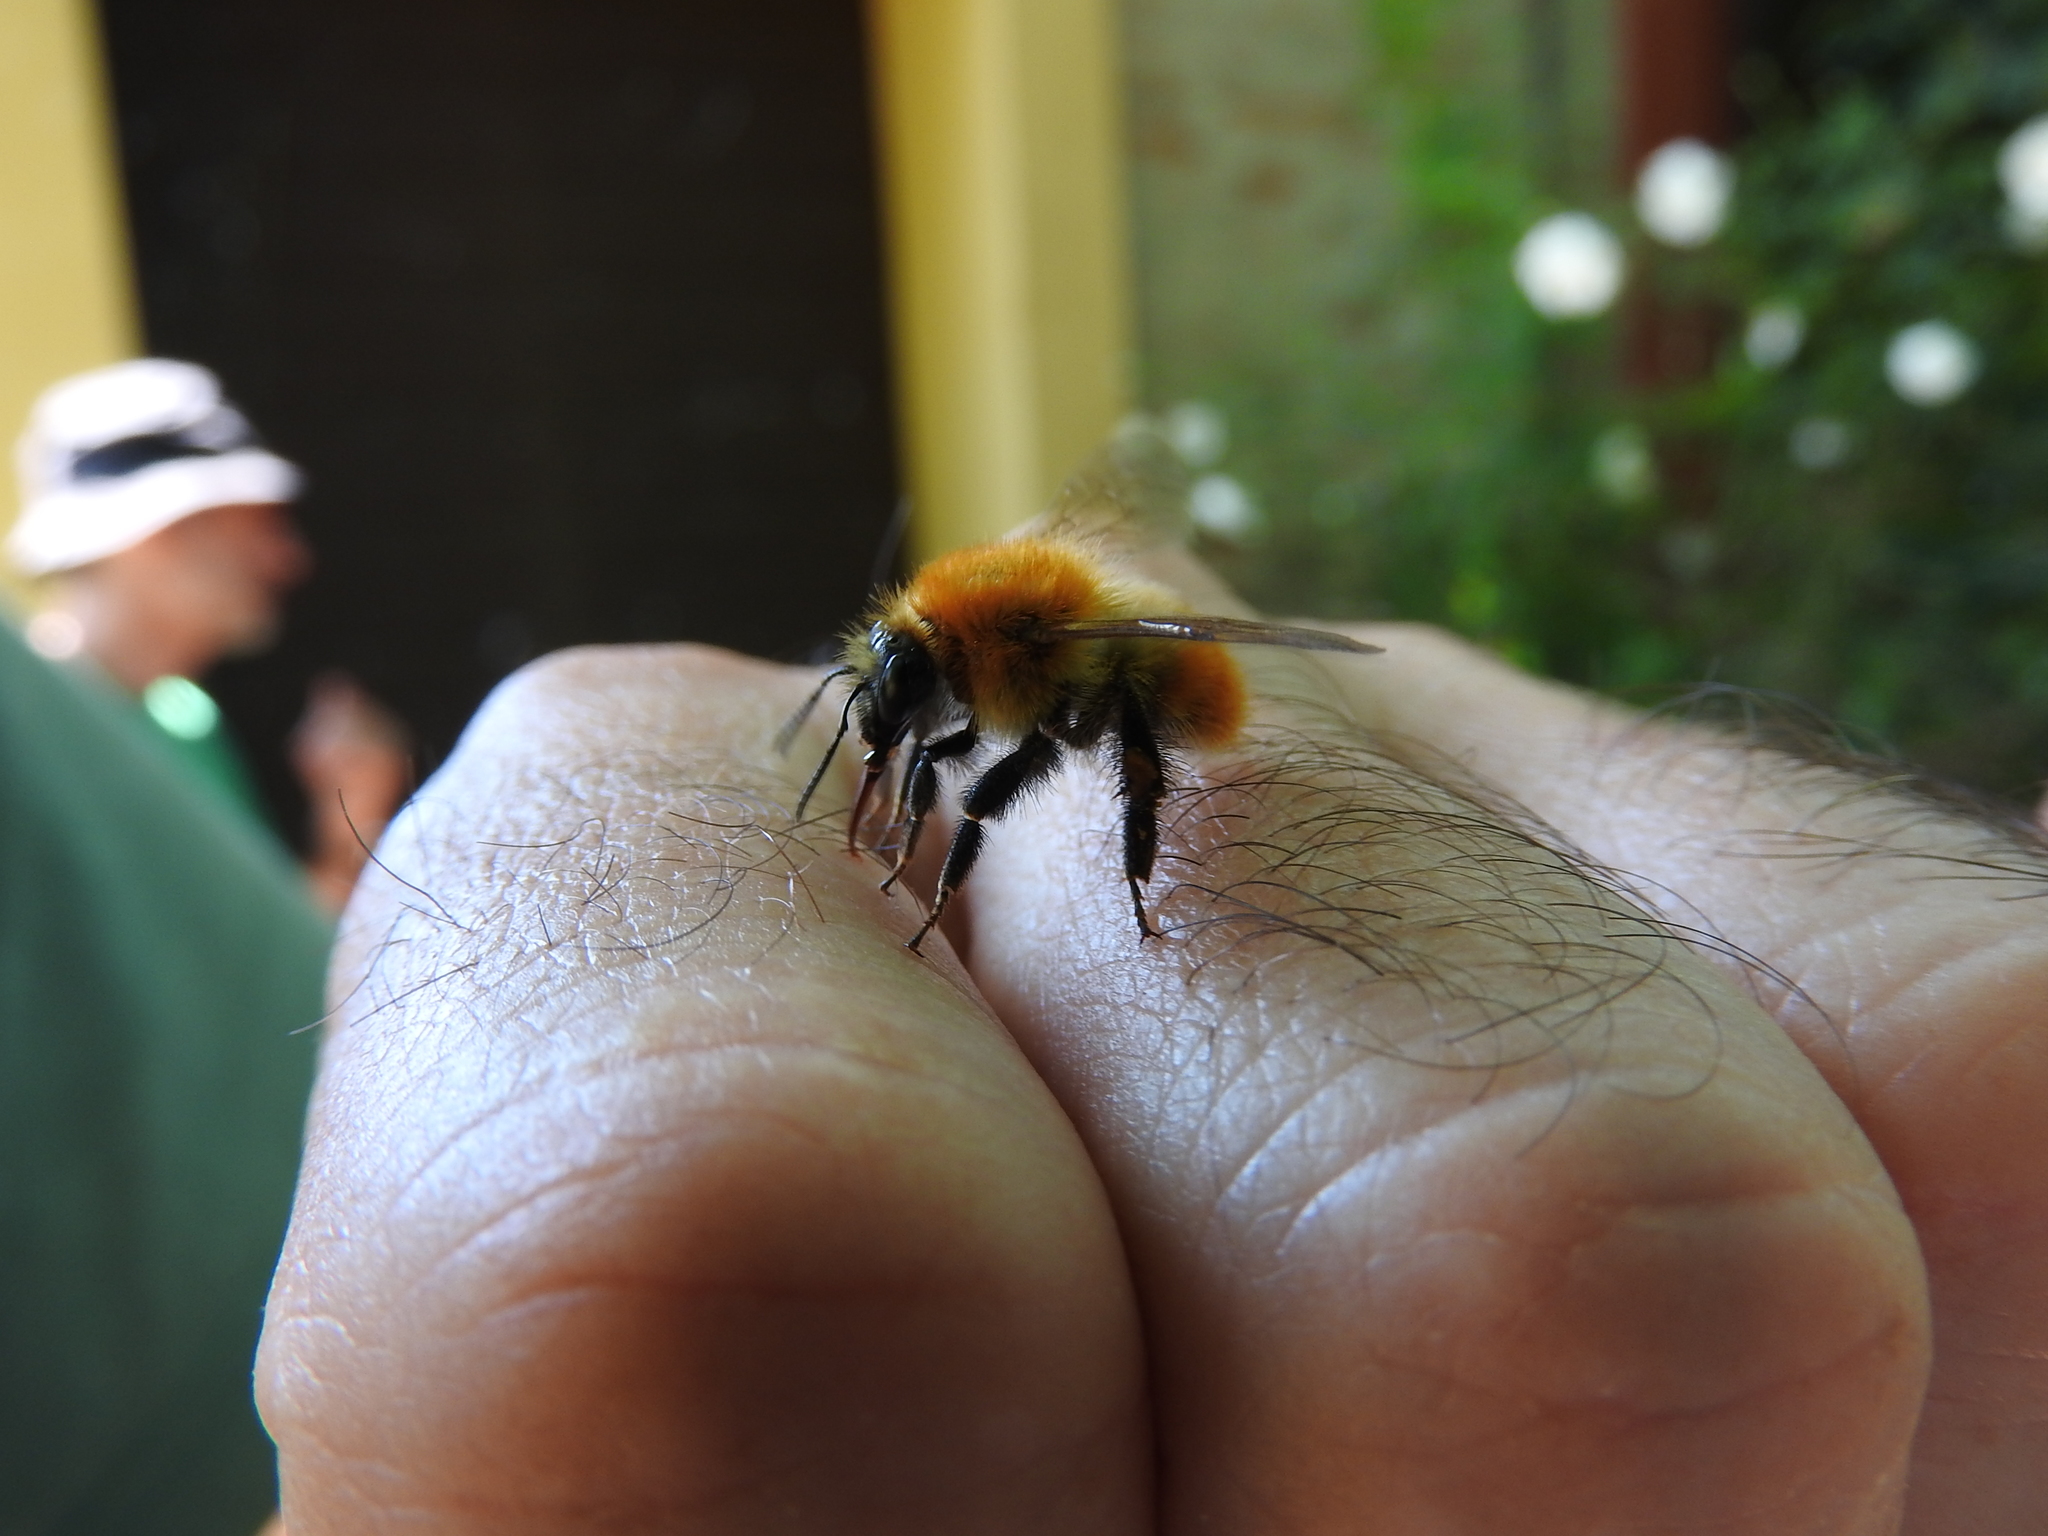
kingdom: Animalia
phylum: Arthropoda
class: Insecta
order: Hymenoptera
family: Apidae
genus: Bombus
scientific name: Bombus pascuorum
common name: Common carder bee
